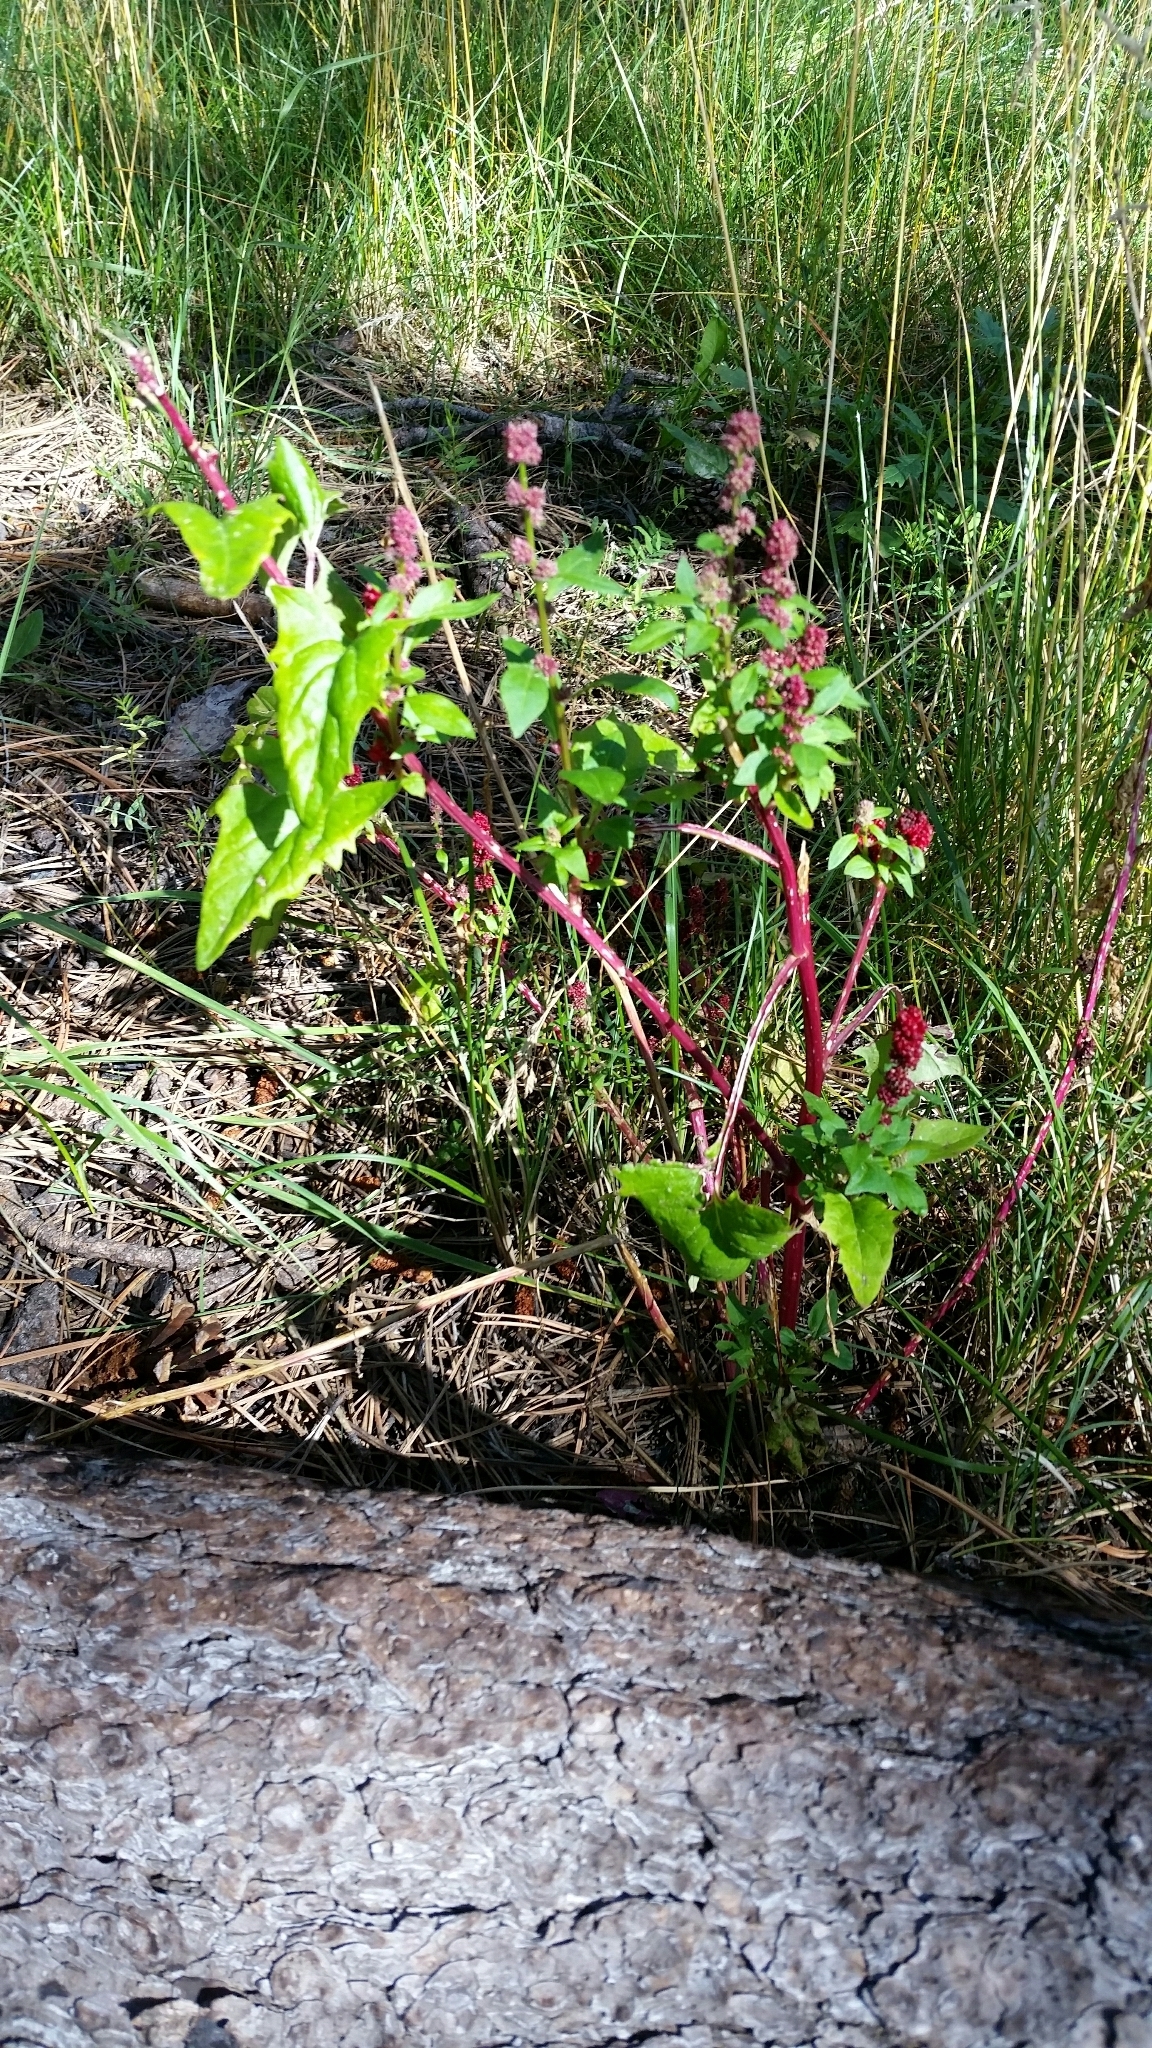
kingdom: Plantae
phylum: Tracheophyta
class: Magnoliopsida
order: Caryophyllales
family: Amaranthaceae
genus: Blitum
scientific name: Blitum capitatum
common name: Strawberry-blight
